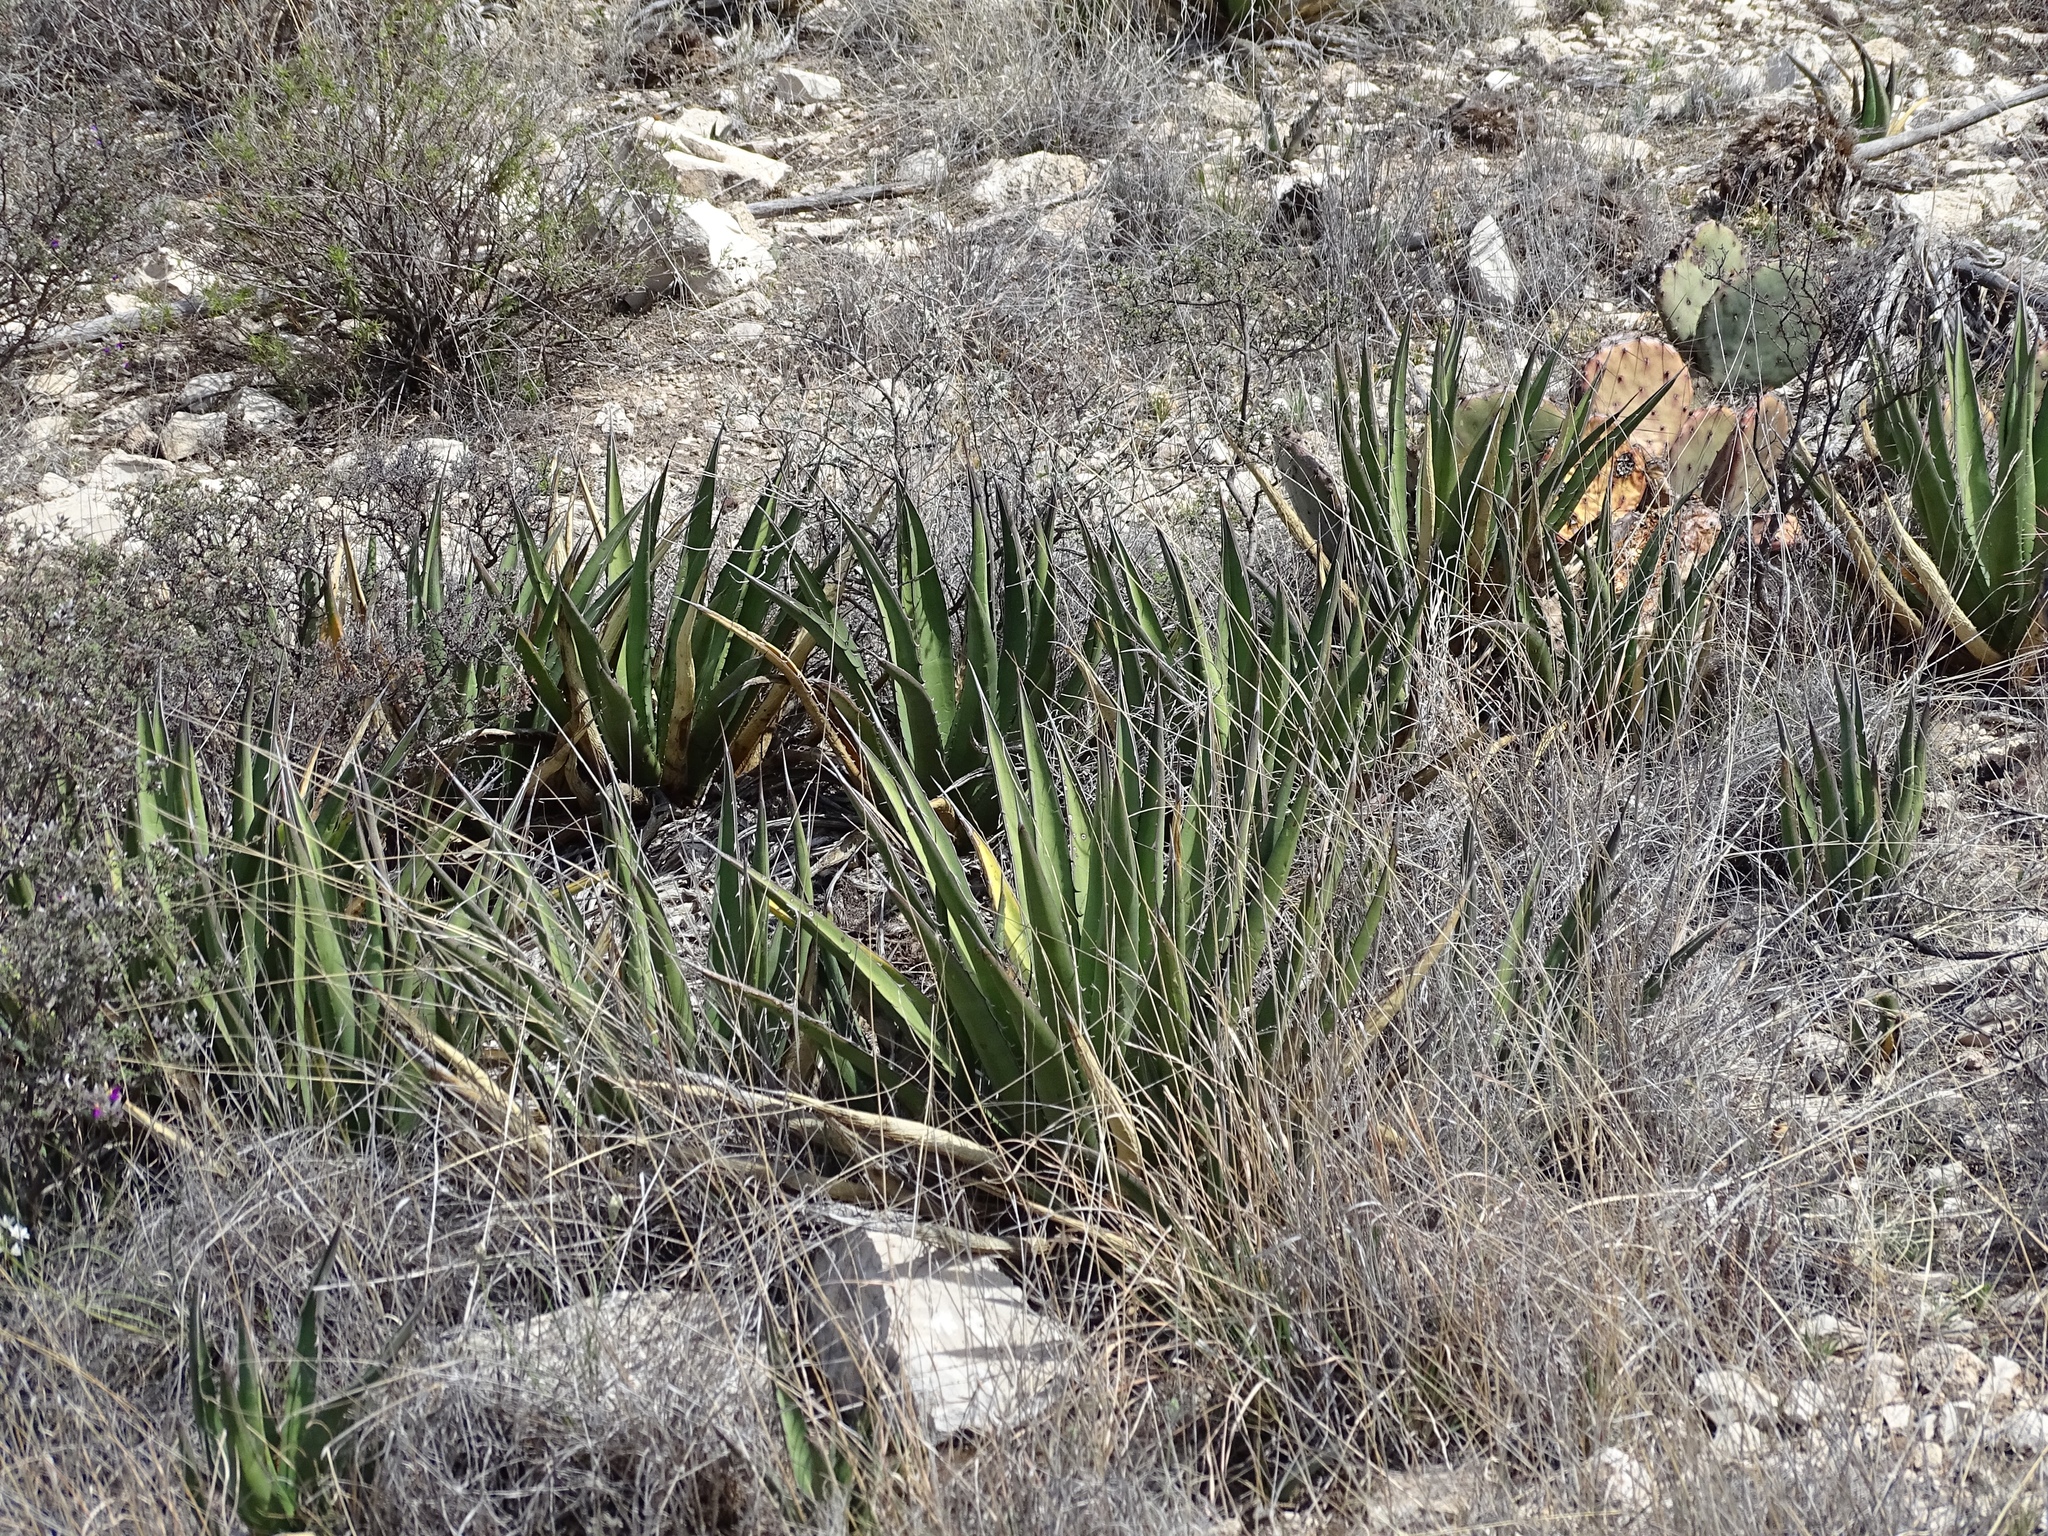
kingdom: Plantae
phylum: Tracheophyta
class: Liliopsida
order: Asparagales
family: Asparagaceae
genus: Agave
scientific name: Agave lechuguilla
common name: Lecheguilla agave
